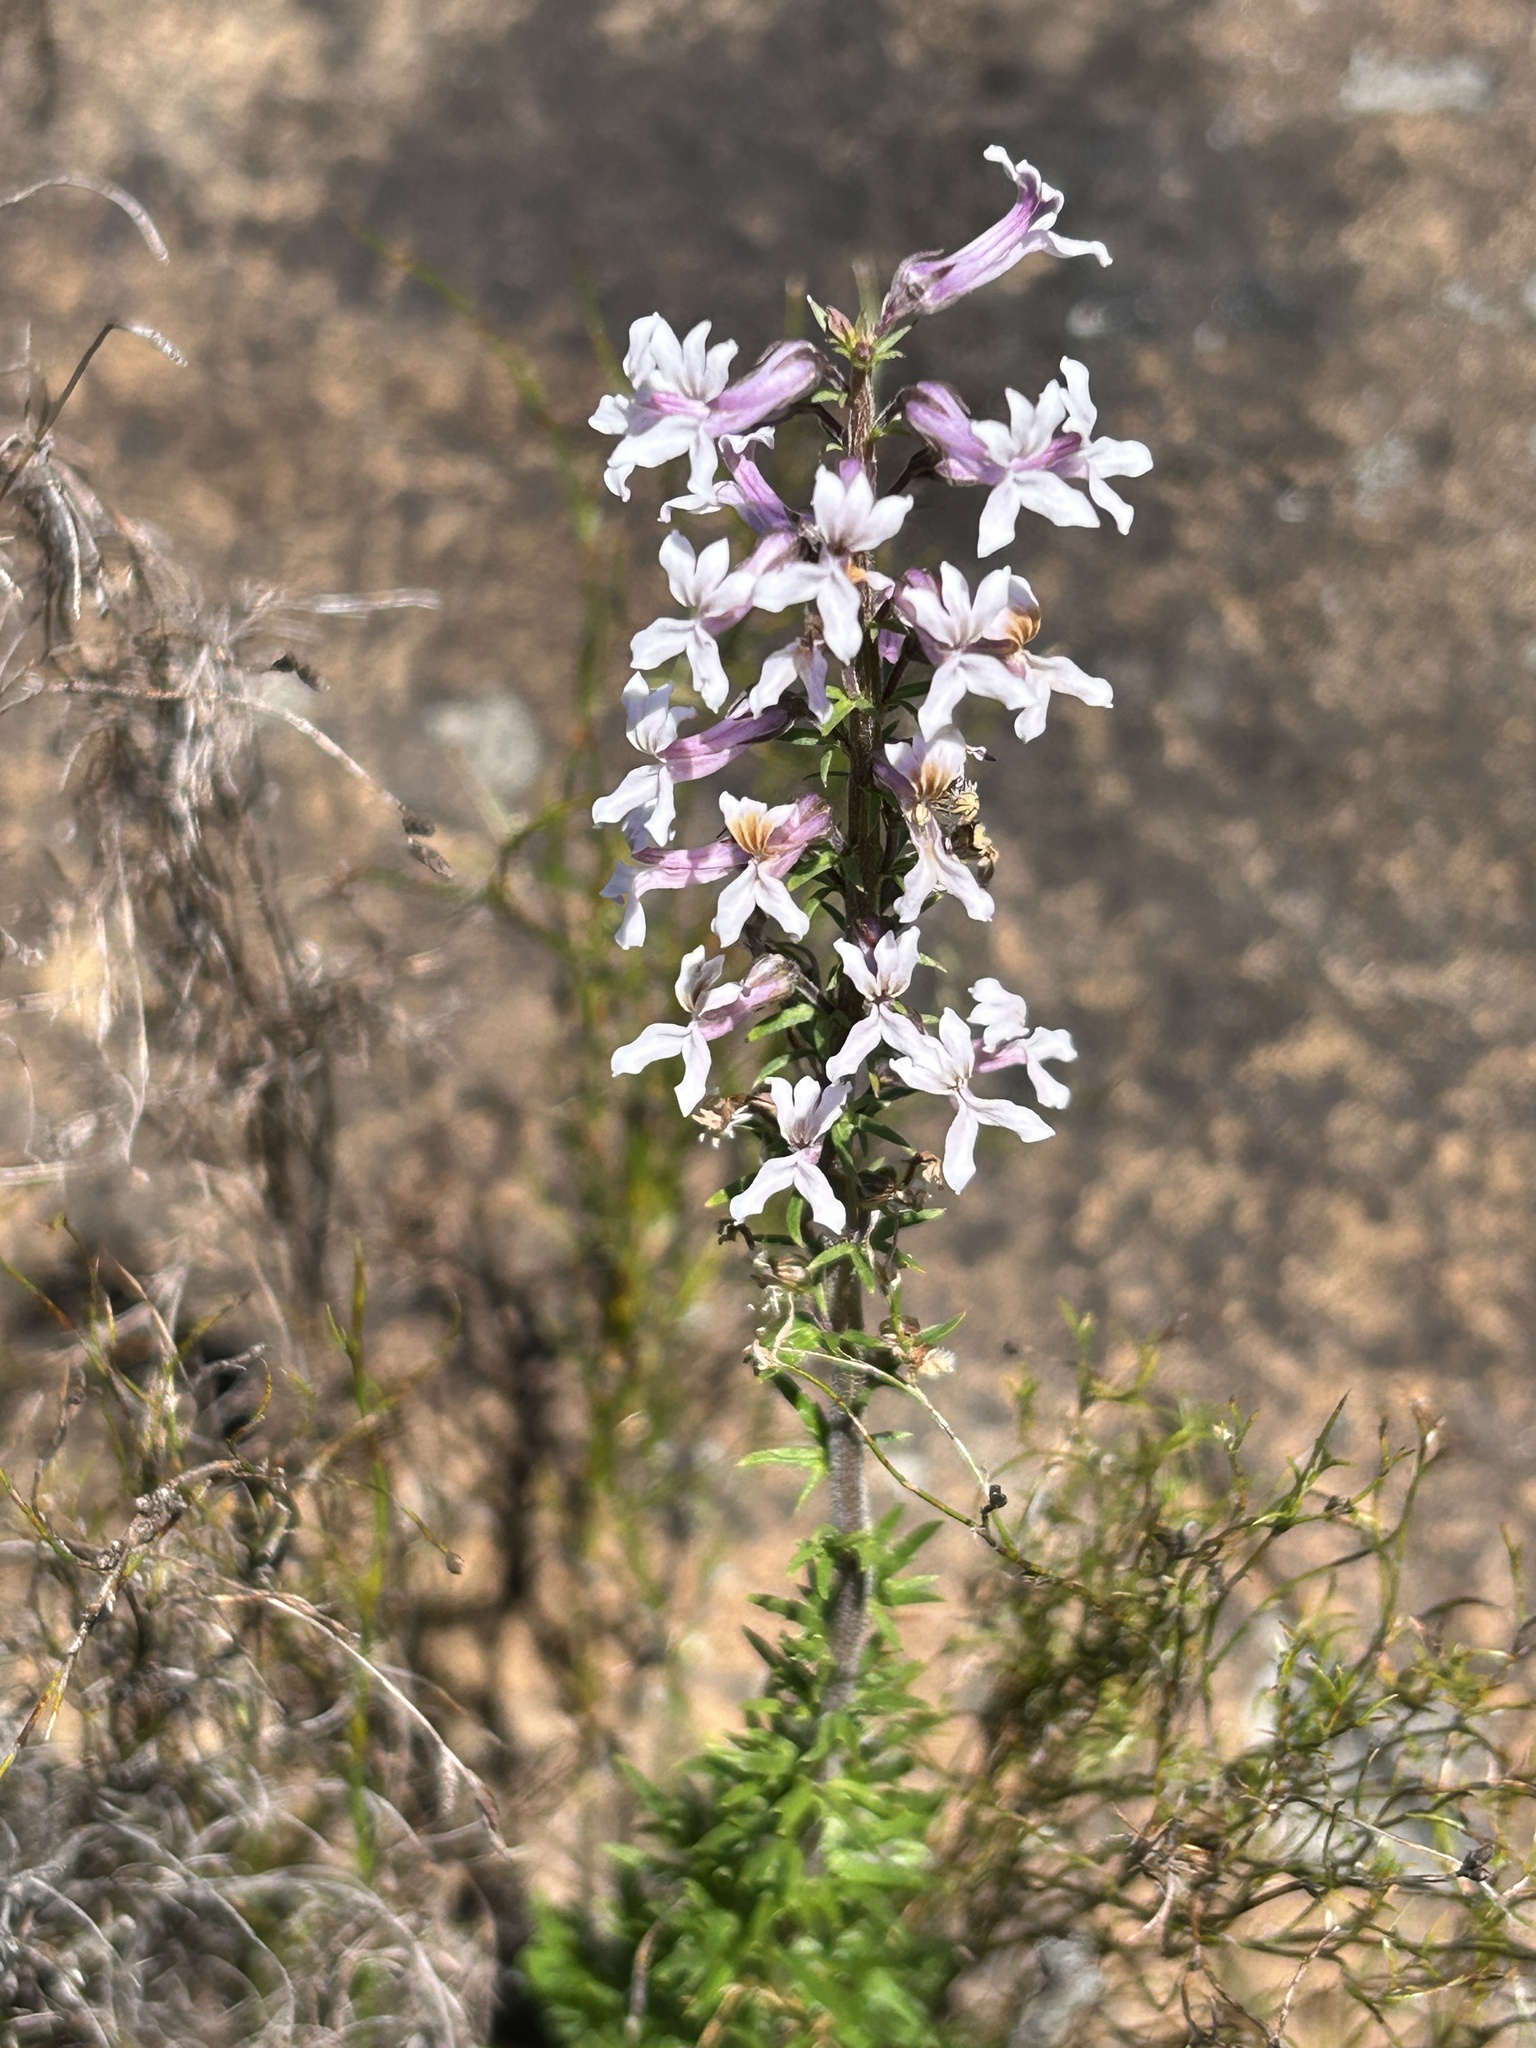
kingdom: Plantae
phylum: Tracheophyta
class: Magnoliopsida
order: Asterales
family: Campanulaceae
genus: Cyphia
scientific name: Cyphia bulbosa
